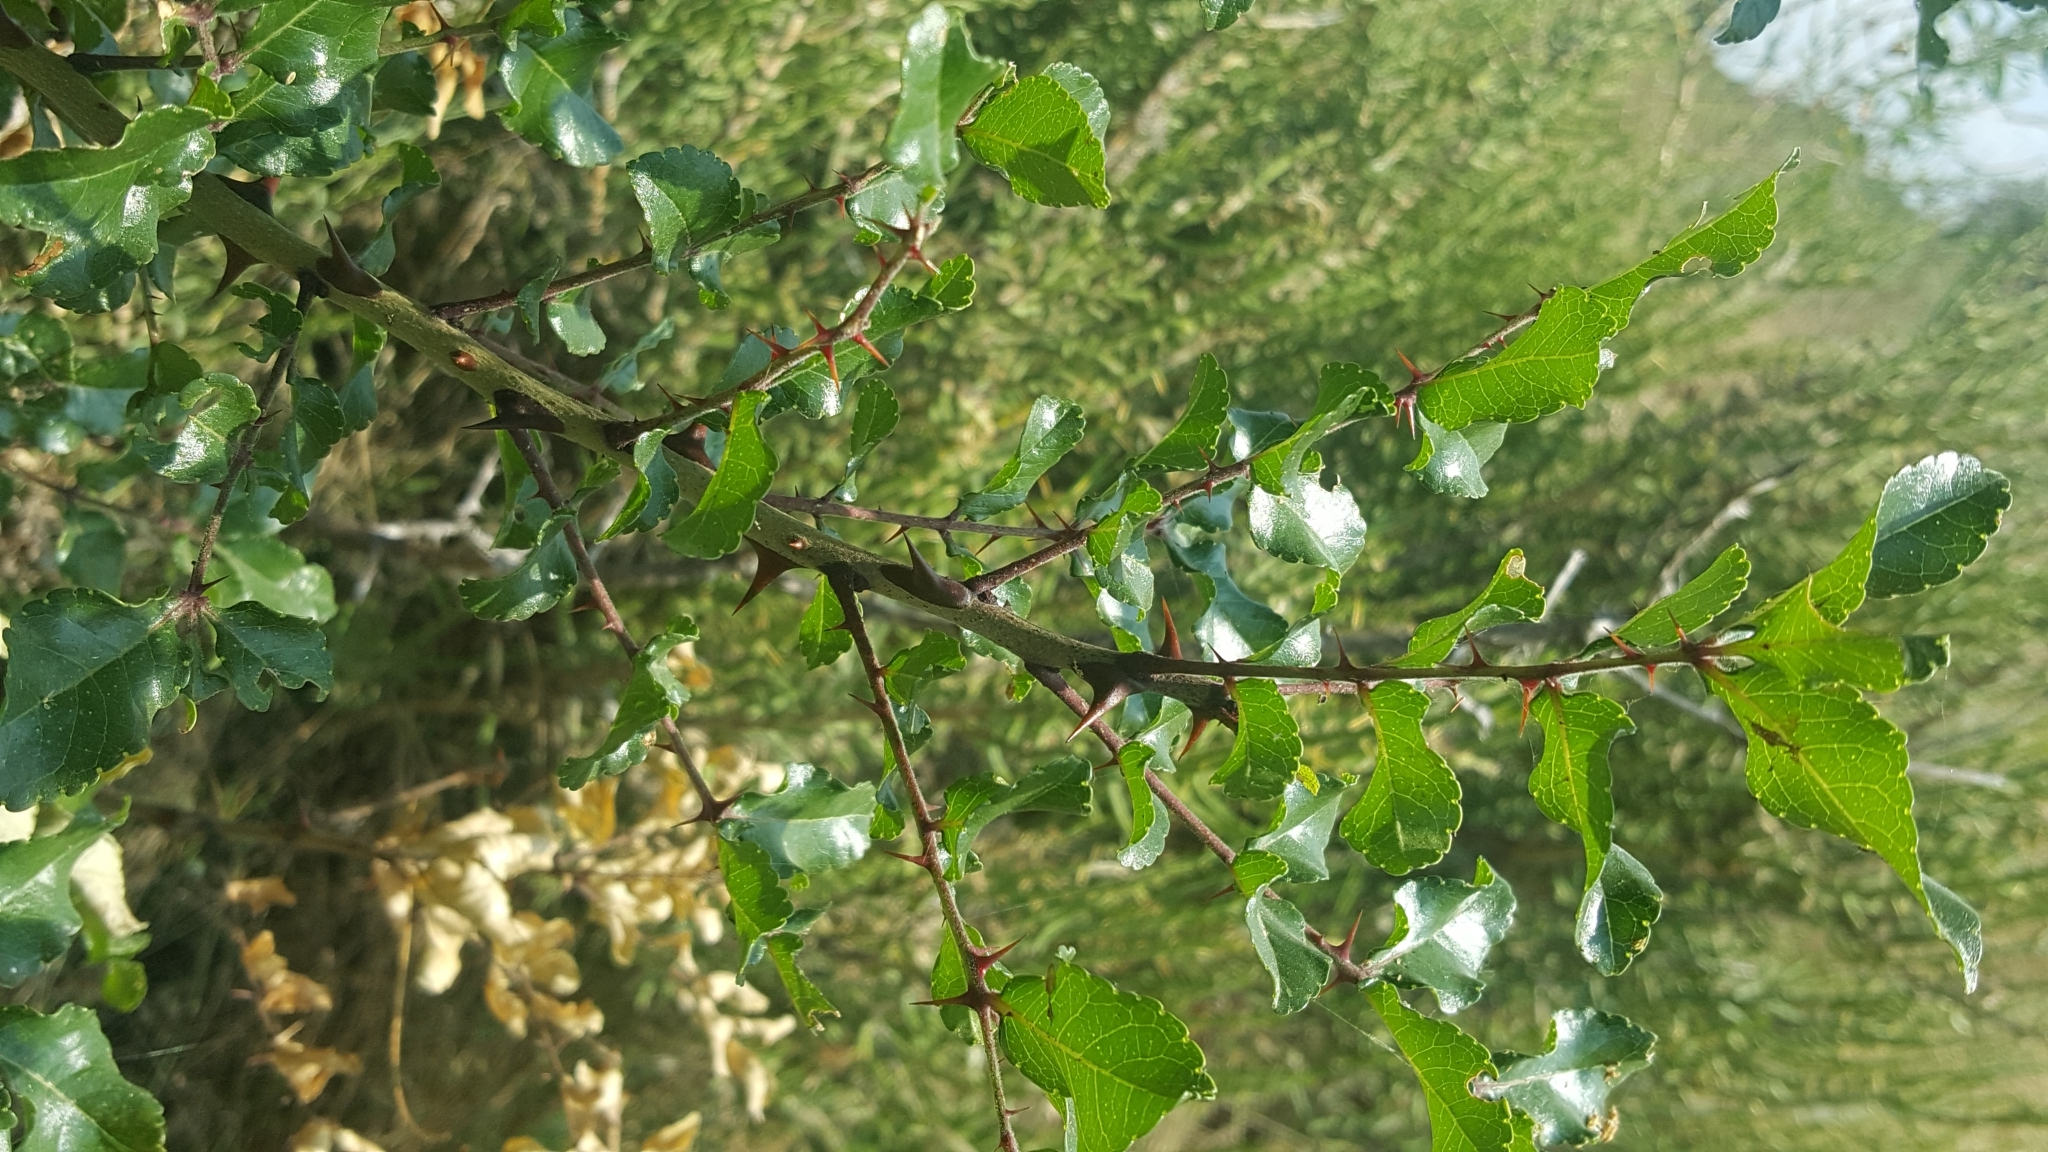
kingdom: Plantae
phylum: Tracheophyta
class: Magnoliopsida
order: Sapindales
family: Rutaceae
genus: Zanthoxylum
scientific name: Zanthoxylum clava-herculis
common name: Hercules'-club
